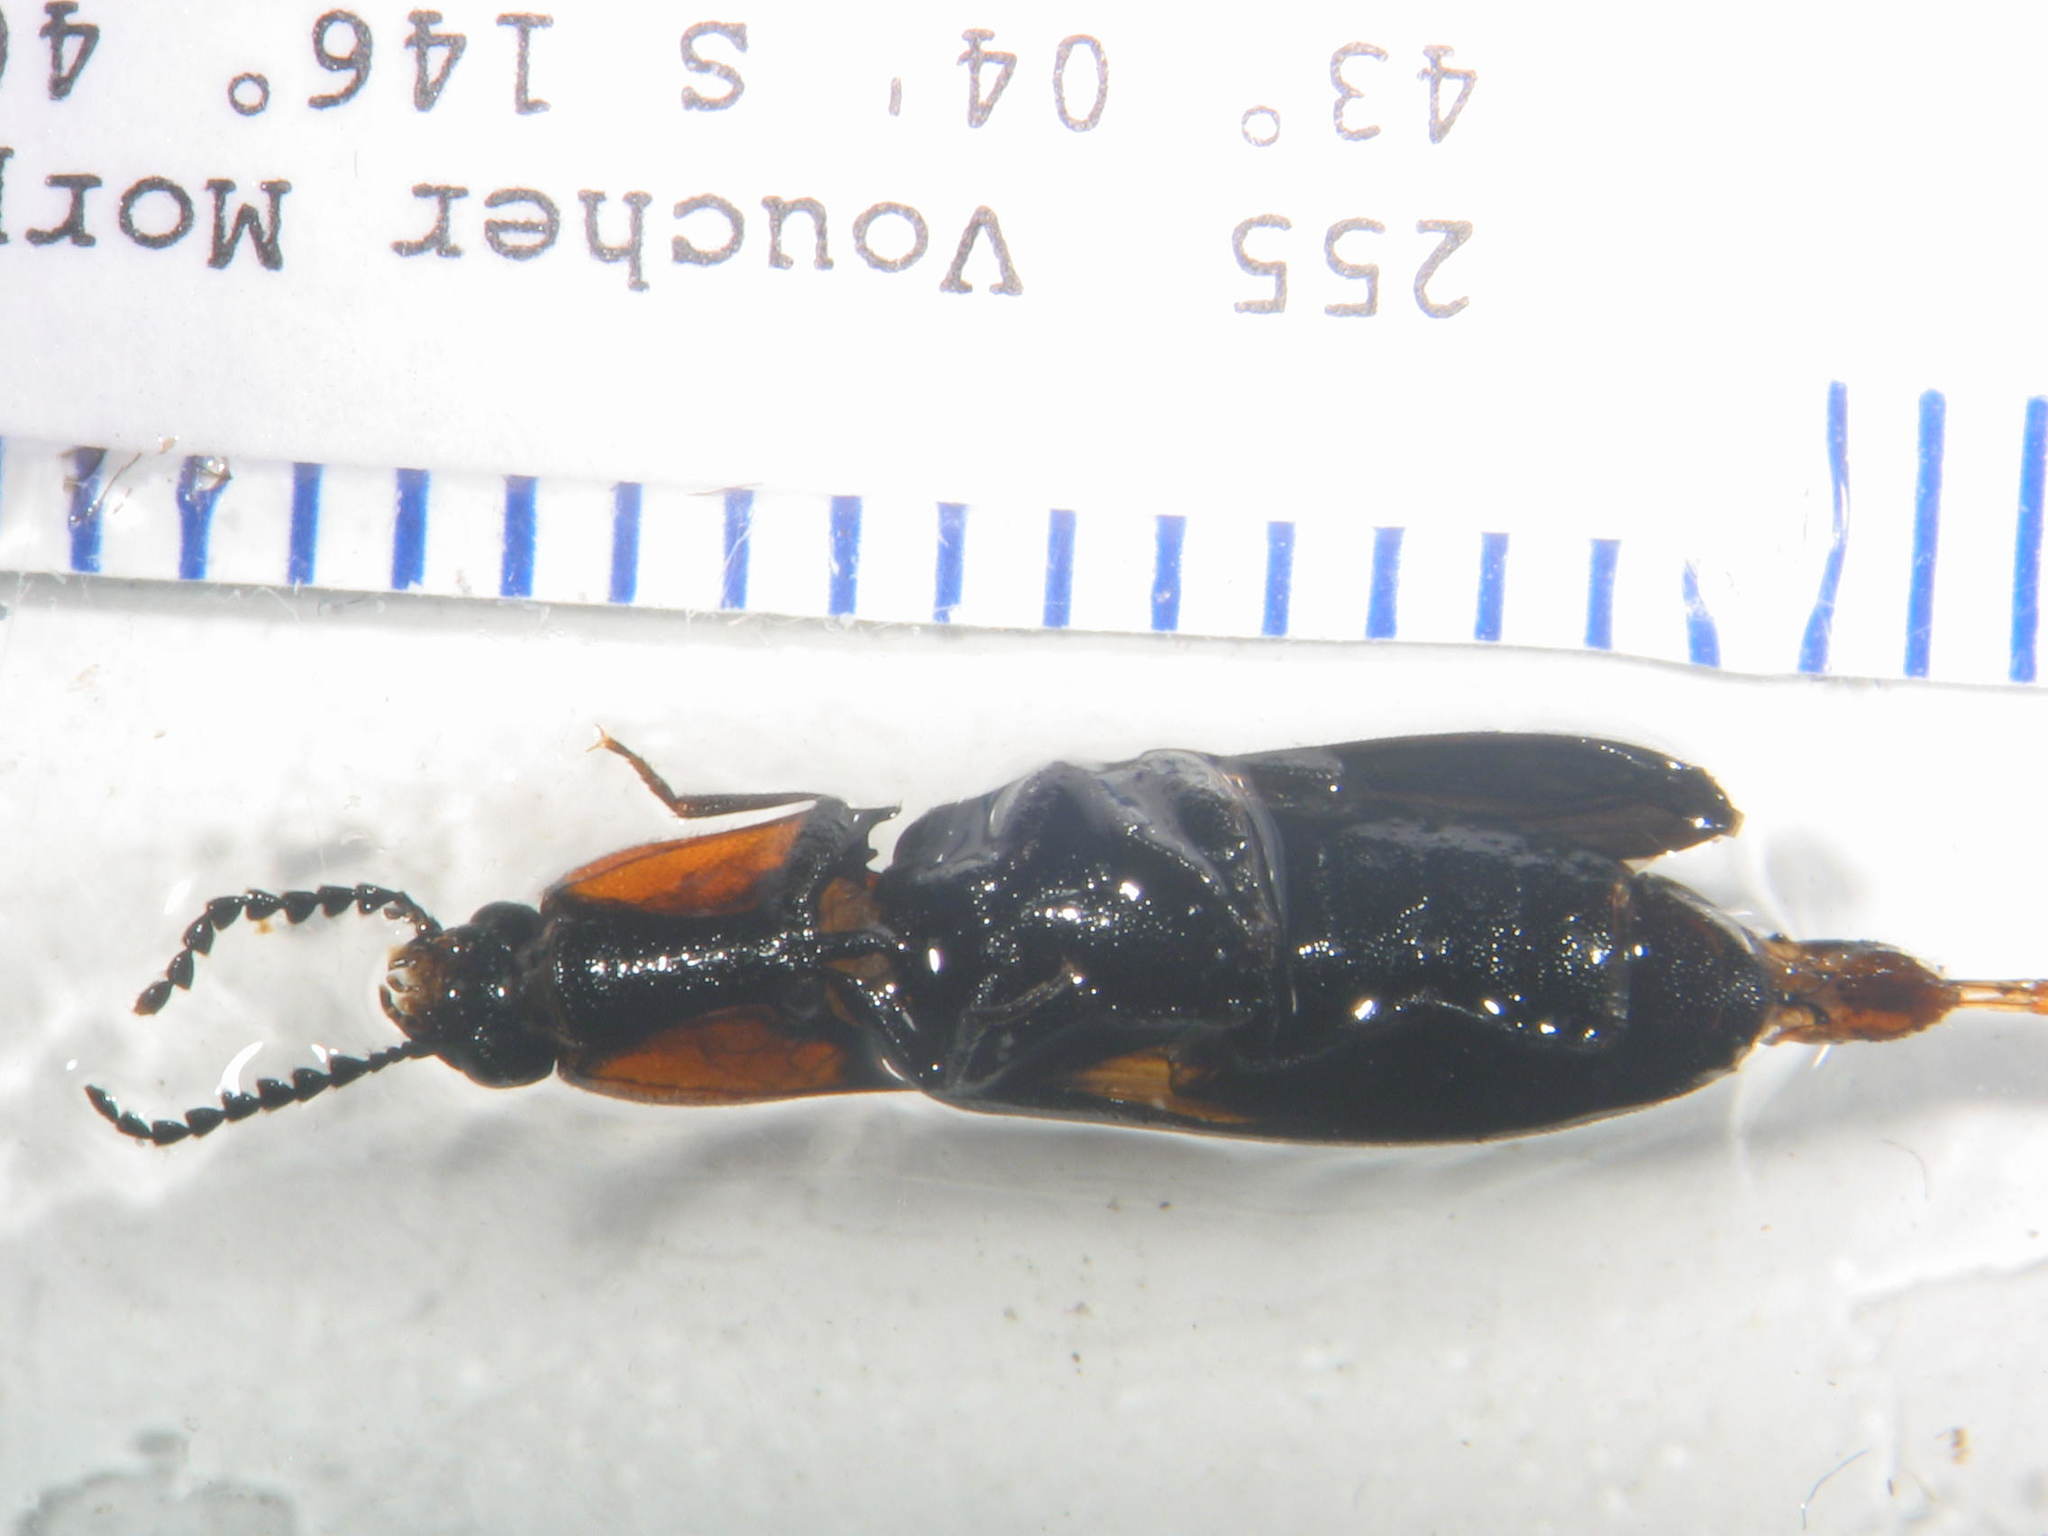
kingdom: Animalia
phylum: Arthropoda
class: Insecta
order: Coleoptera
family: Elateridae
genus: Augenotus
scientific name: Augenotus
